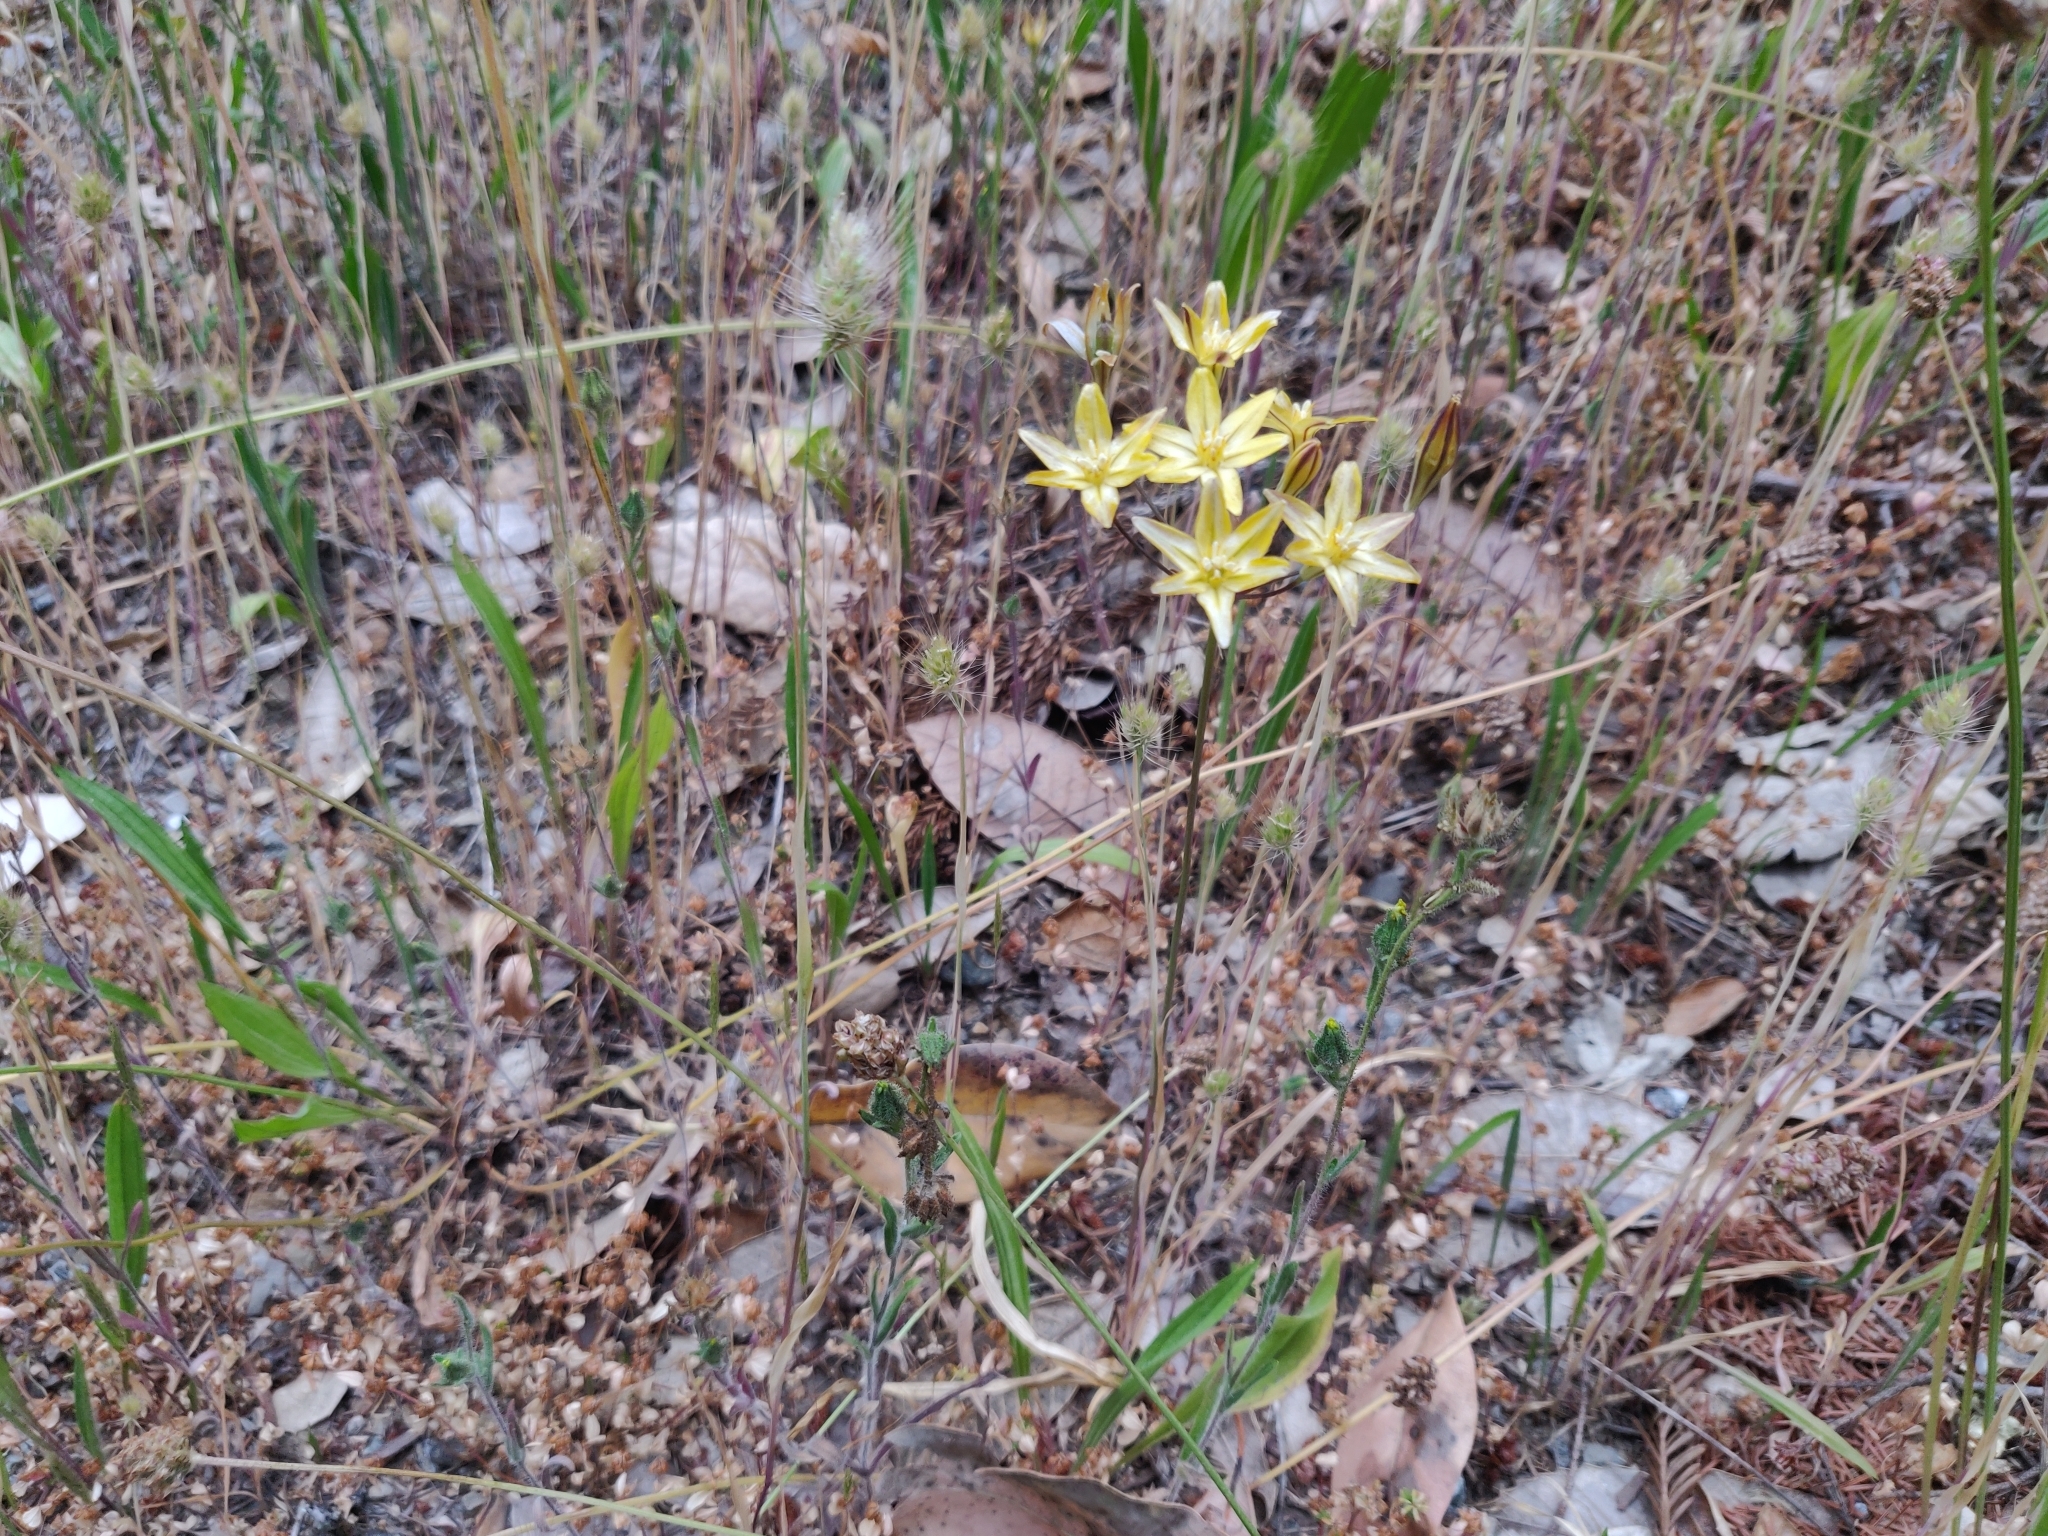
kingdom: Plantae
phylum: Tracheophyta
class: Liliopsida
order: Asparagales
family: Asparagaceae
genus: Triteleia
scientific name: Triteleia ixioides
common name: Yellow-brodiaea
